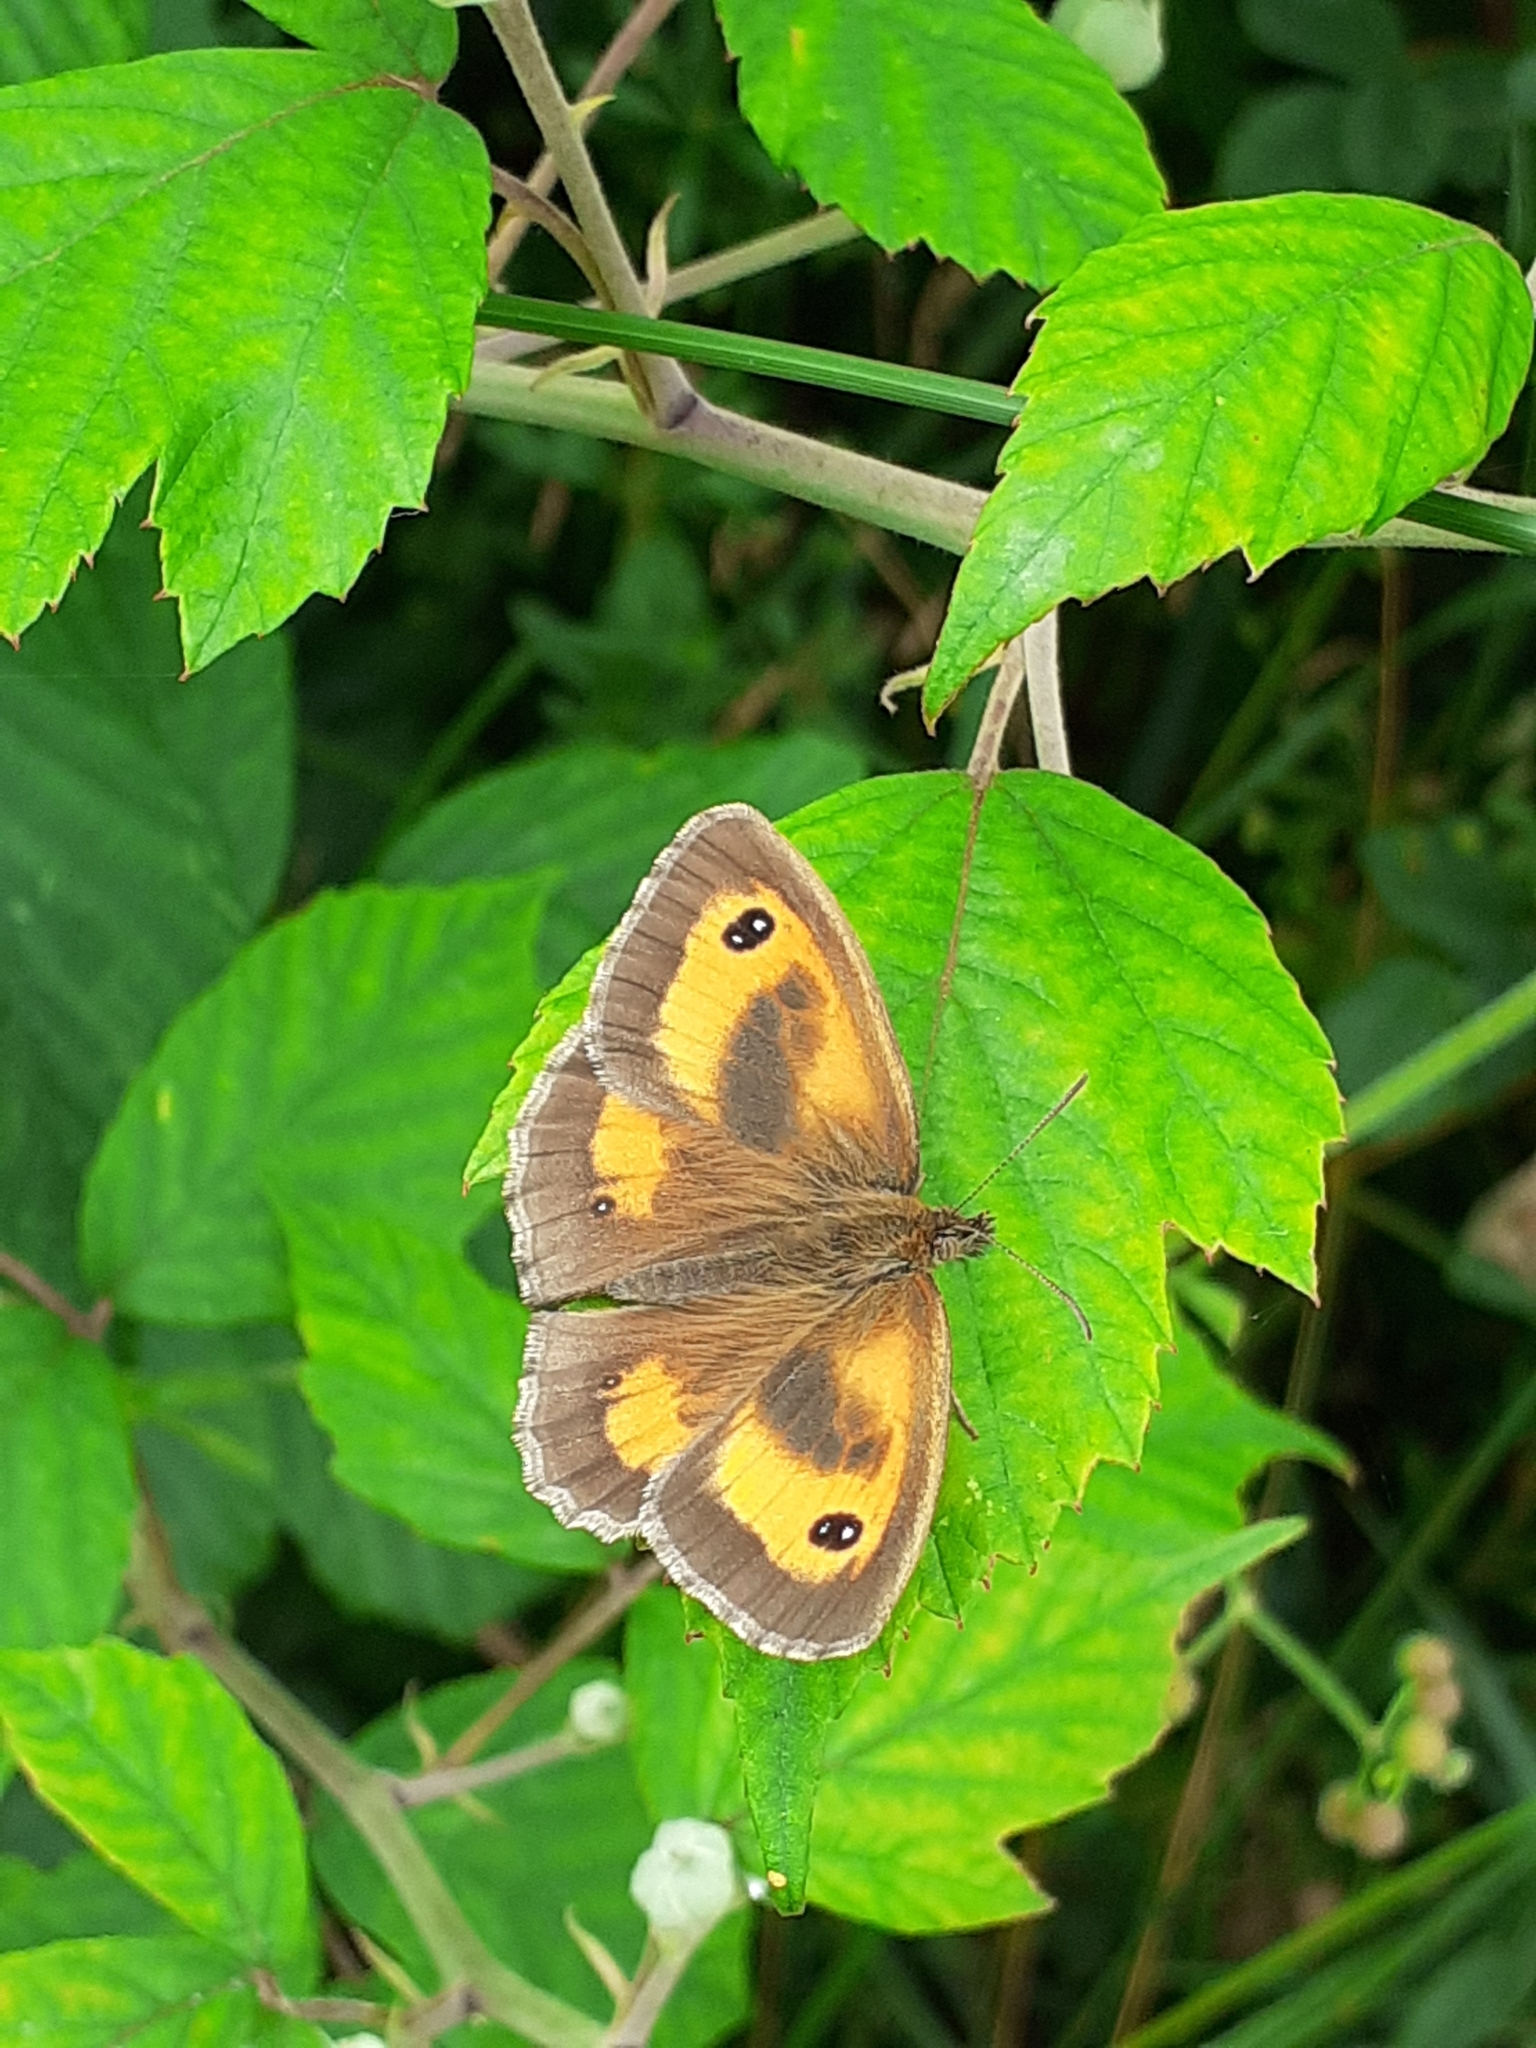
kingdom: Animalia
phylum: Arthropoda
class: Insecta
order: Lepidoptera
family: Nymphalidae
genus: Pyronia
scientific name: Pyronia tithonus
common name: Gatekeeper
